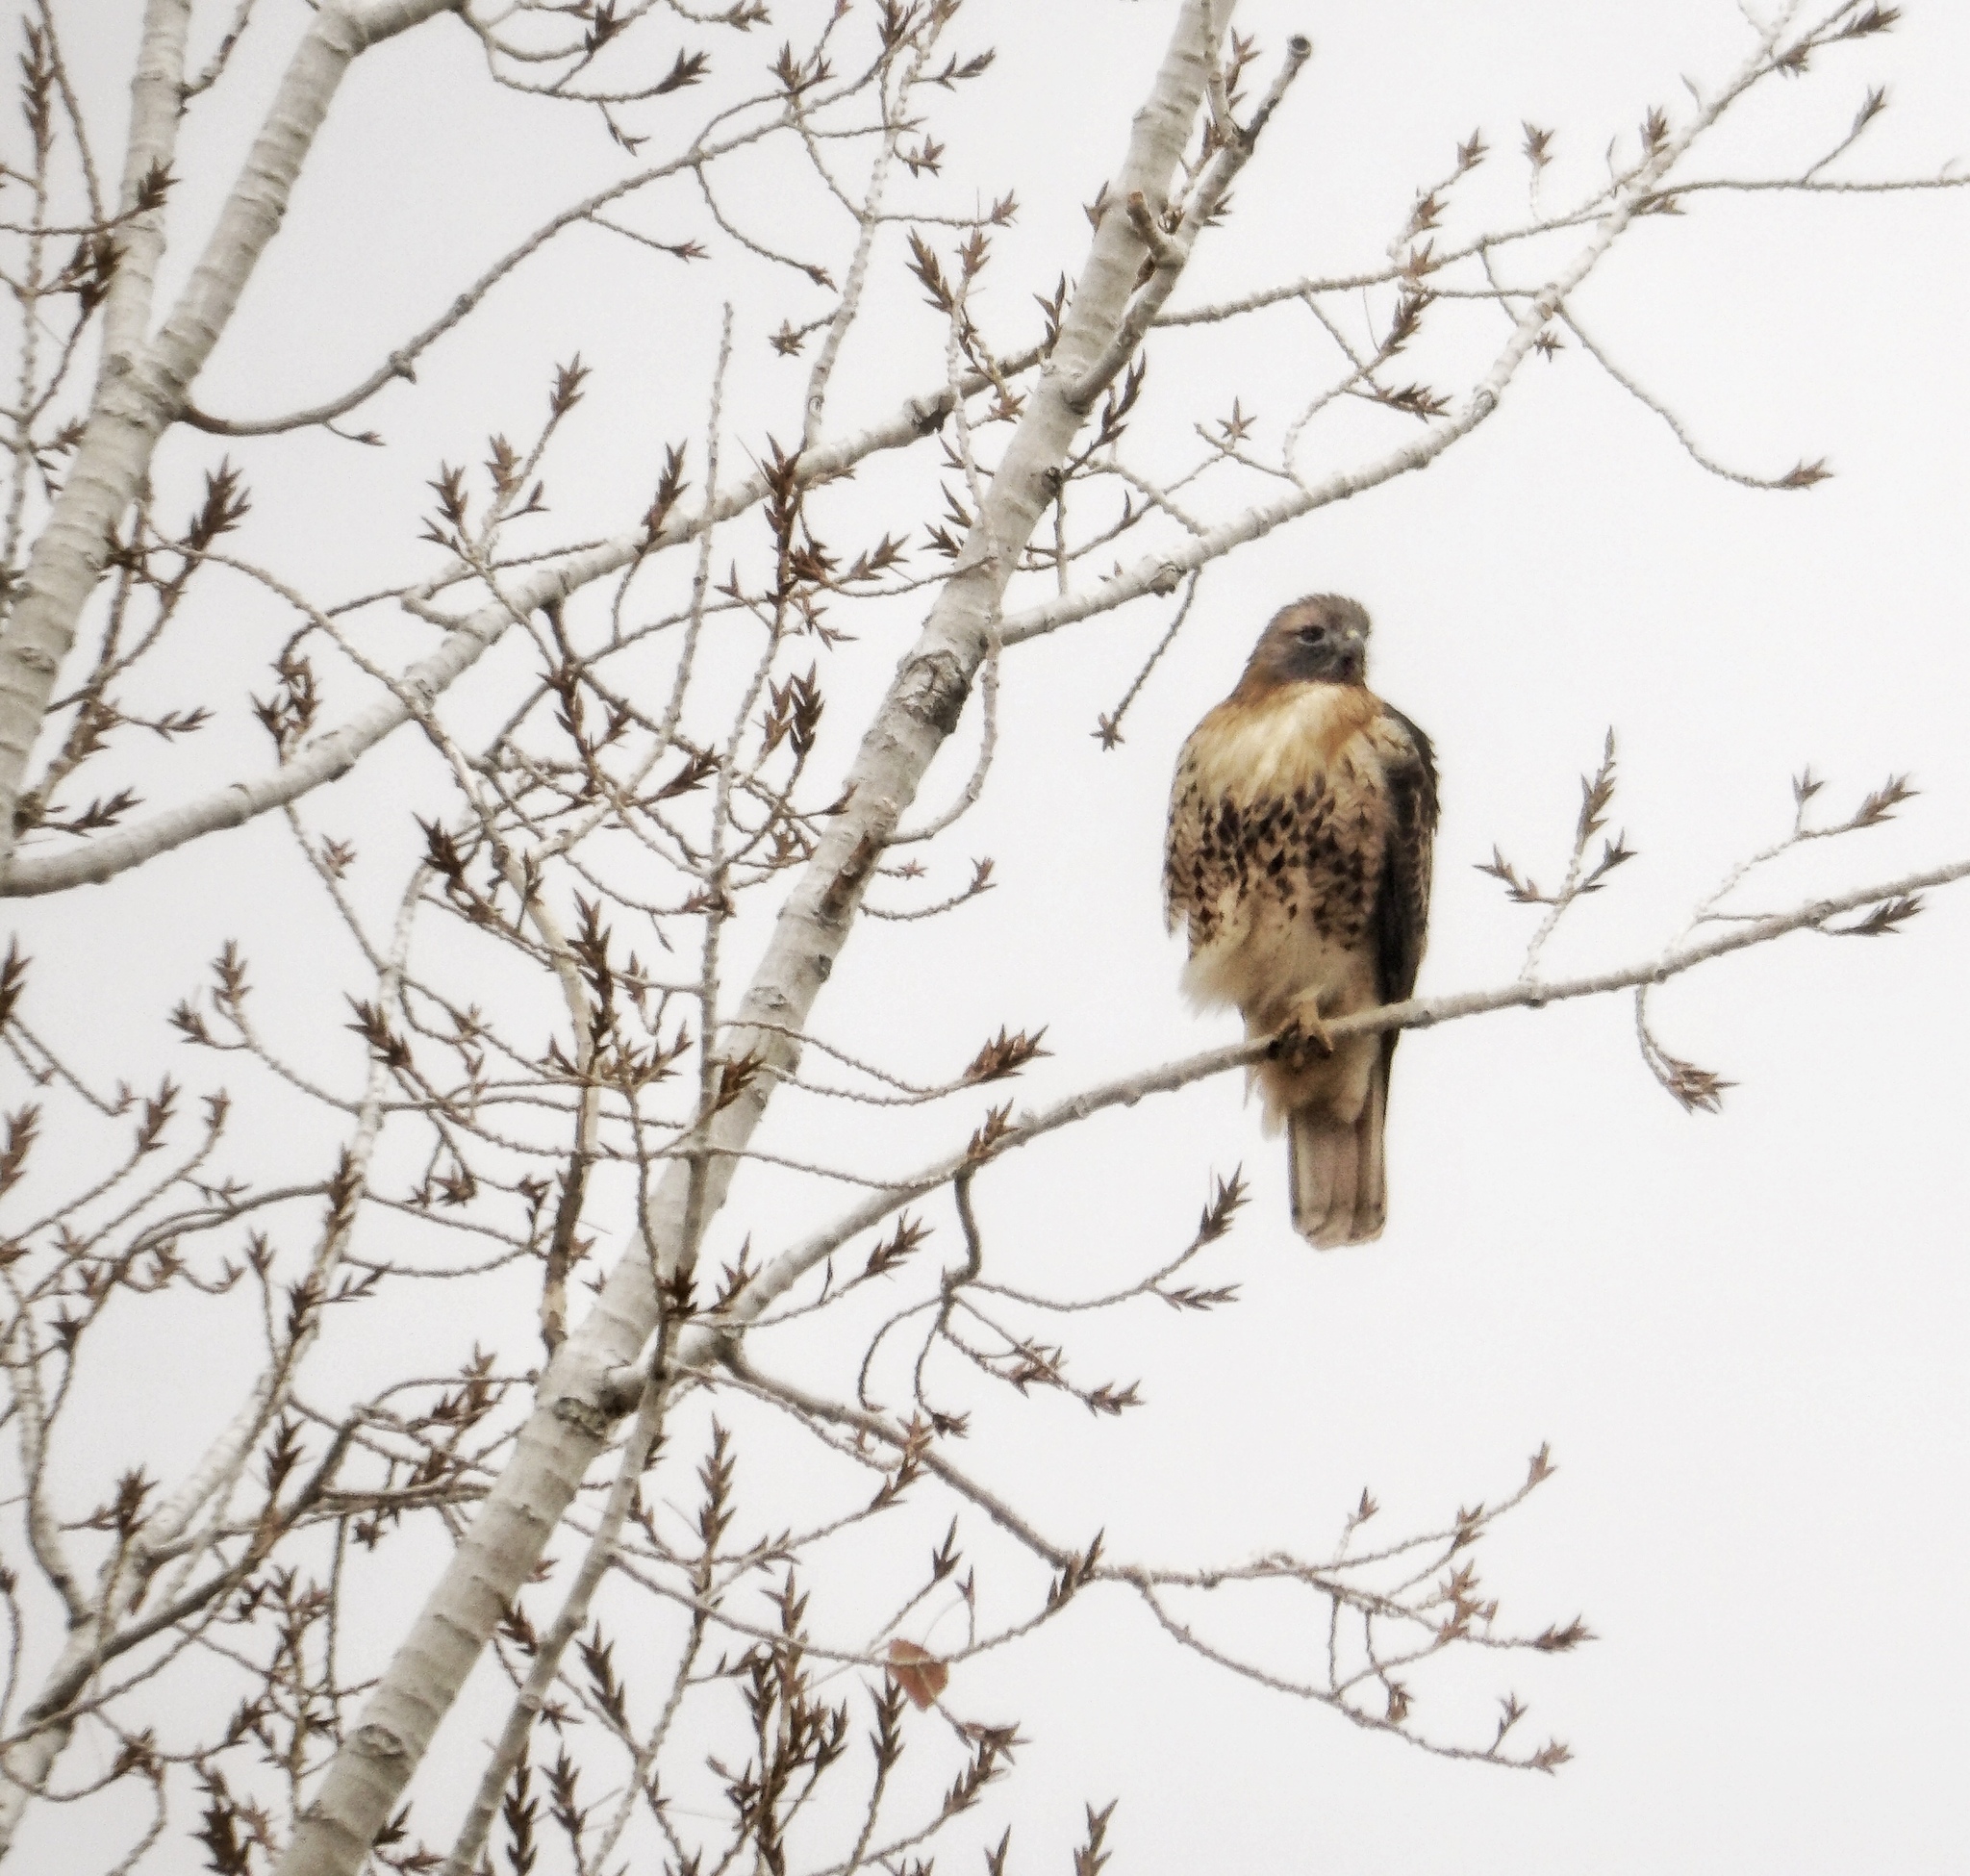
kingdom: Animalia
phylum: Chordata
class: Aves
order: Accipitriformes
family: Accipitridae
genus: Buteo
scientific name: Buteo jamaicensis
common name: Red-tailed hawk
